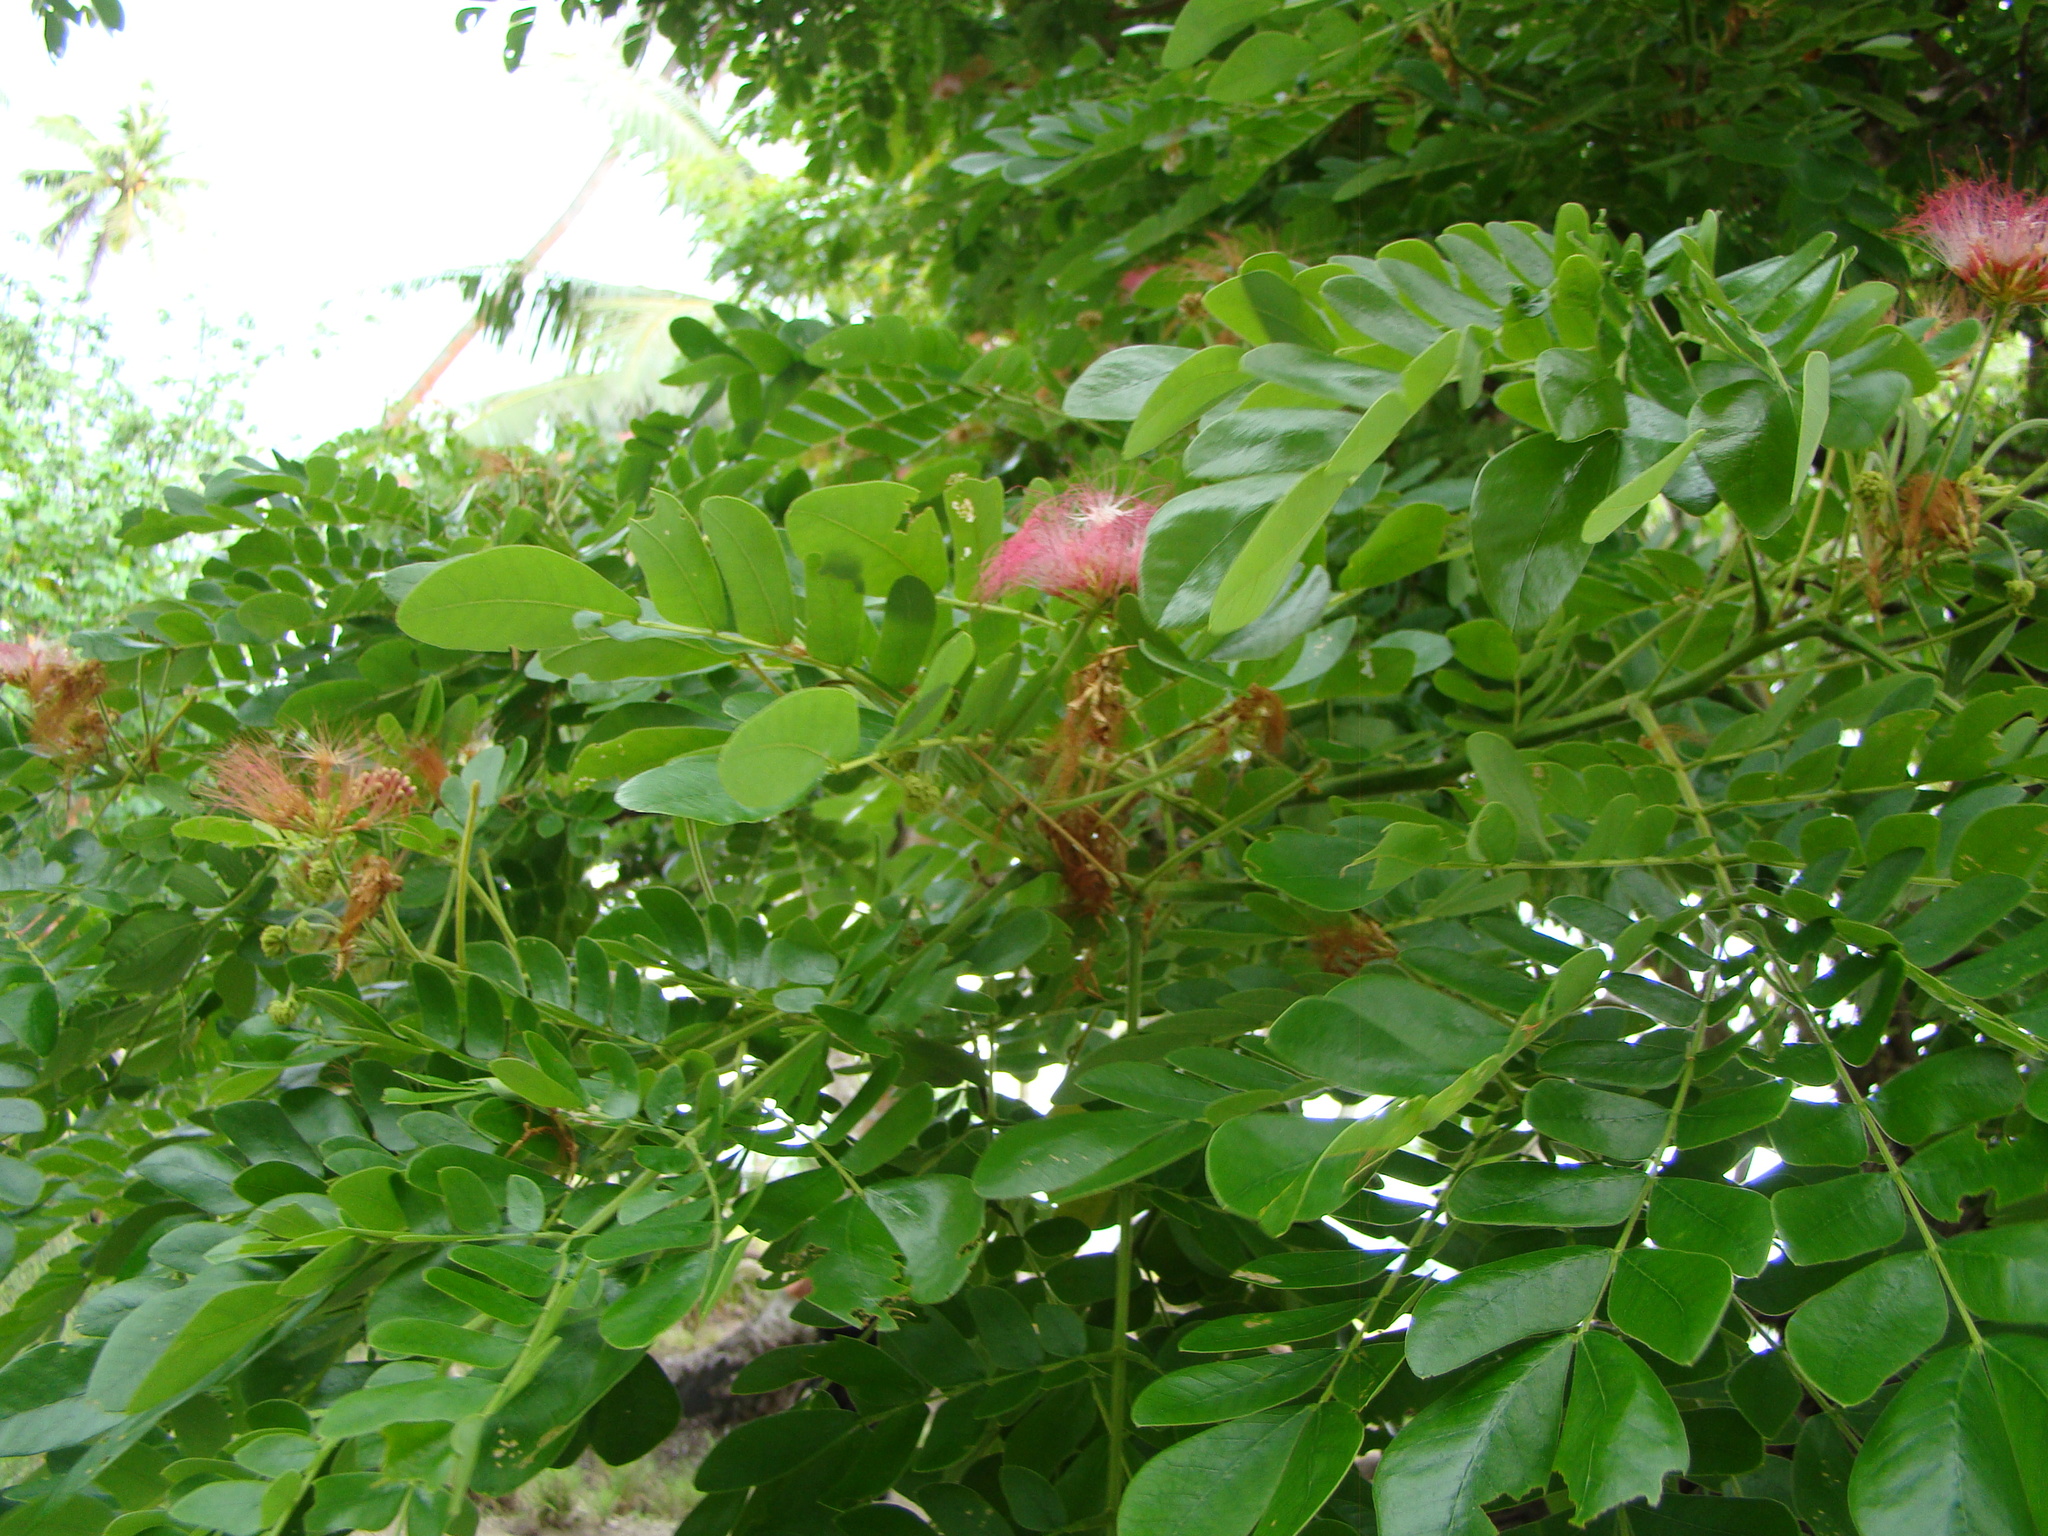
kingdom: Plantae
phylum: Tracheophyta
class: Magnoliopsida
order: Fabales
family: Fabaceae
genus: Samanea
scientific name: Samanea saman
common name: Raintree
